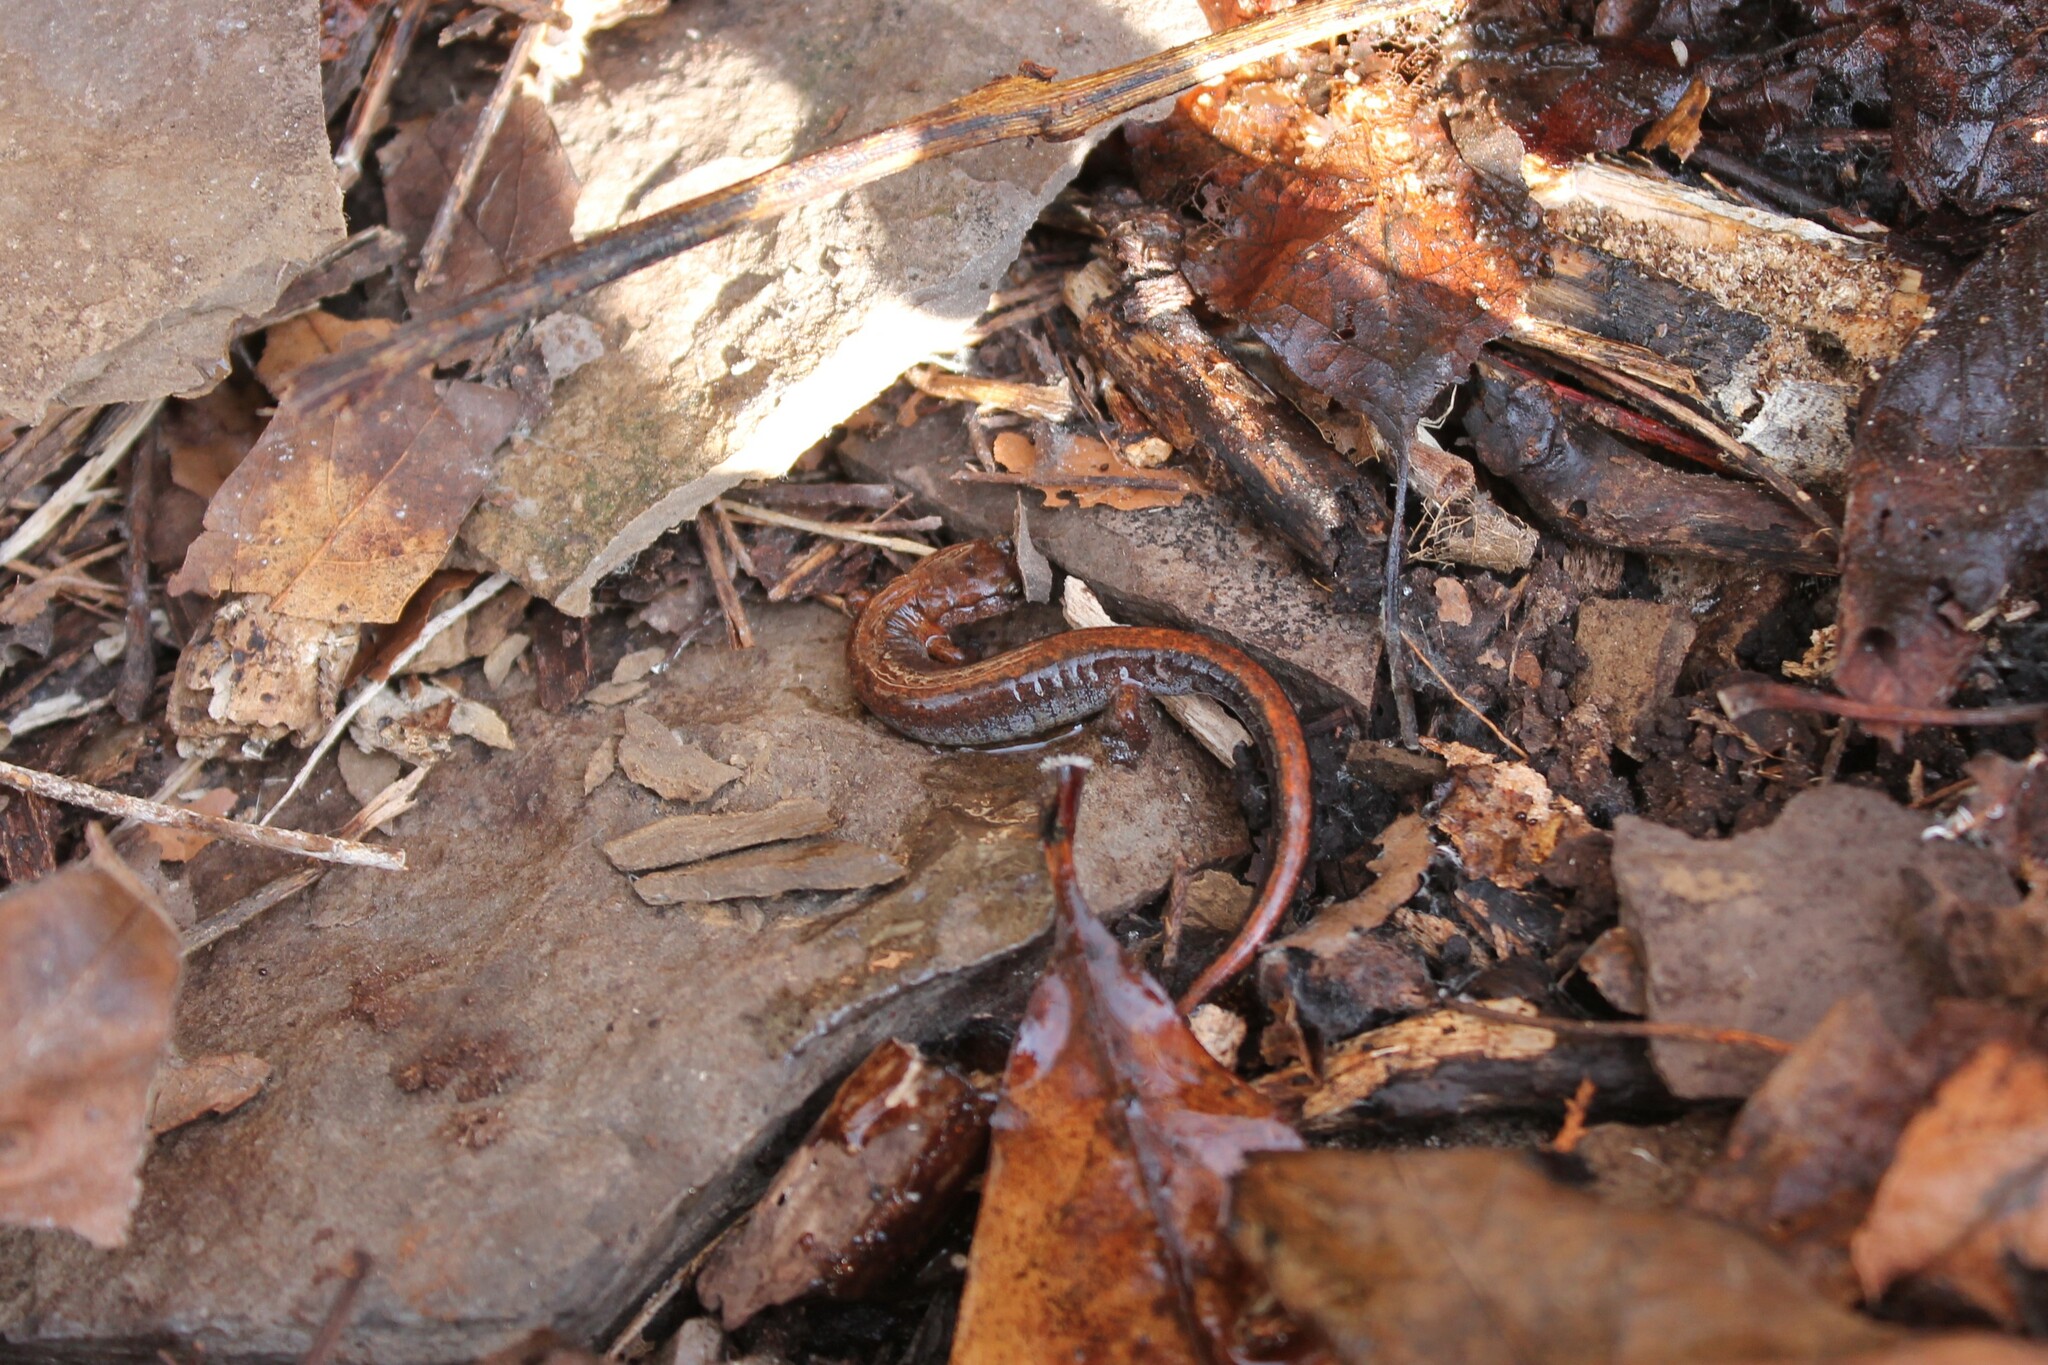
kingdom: Animalia
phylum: Chordata
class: Amphibia
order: Caudata
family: Plethodontidae
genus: Plethodon
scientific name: Plethodon dorsalis
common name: Northern zigzag salamander
